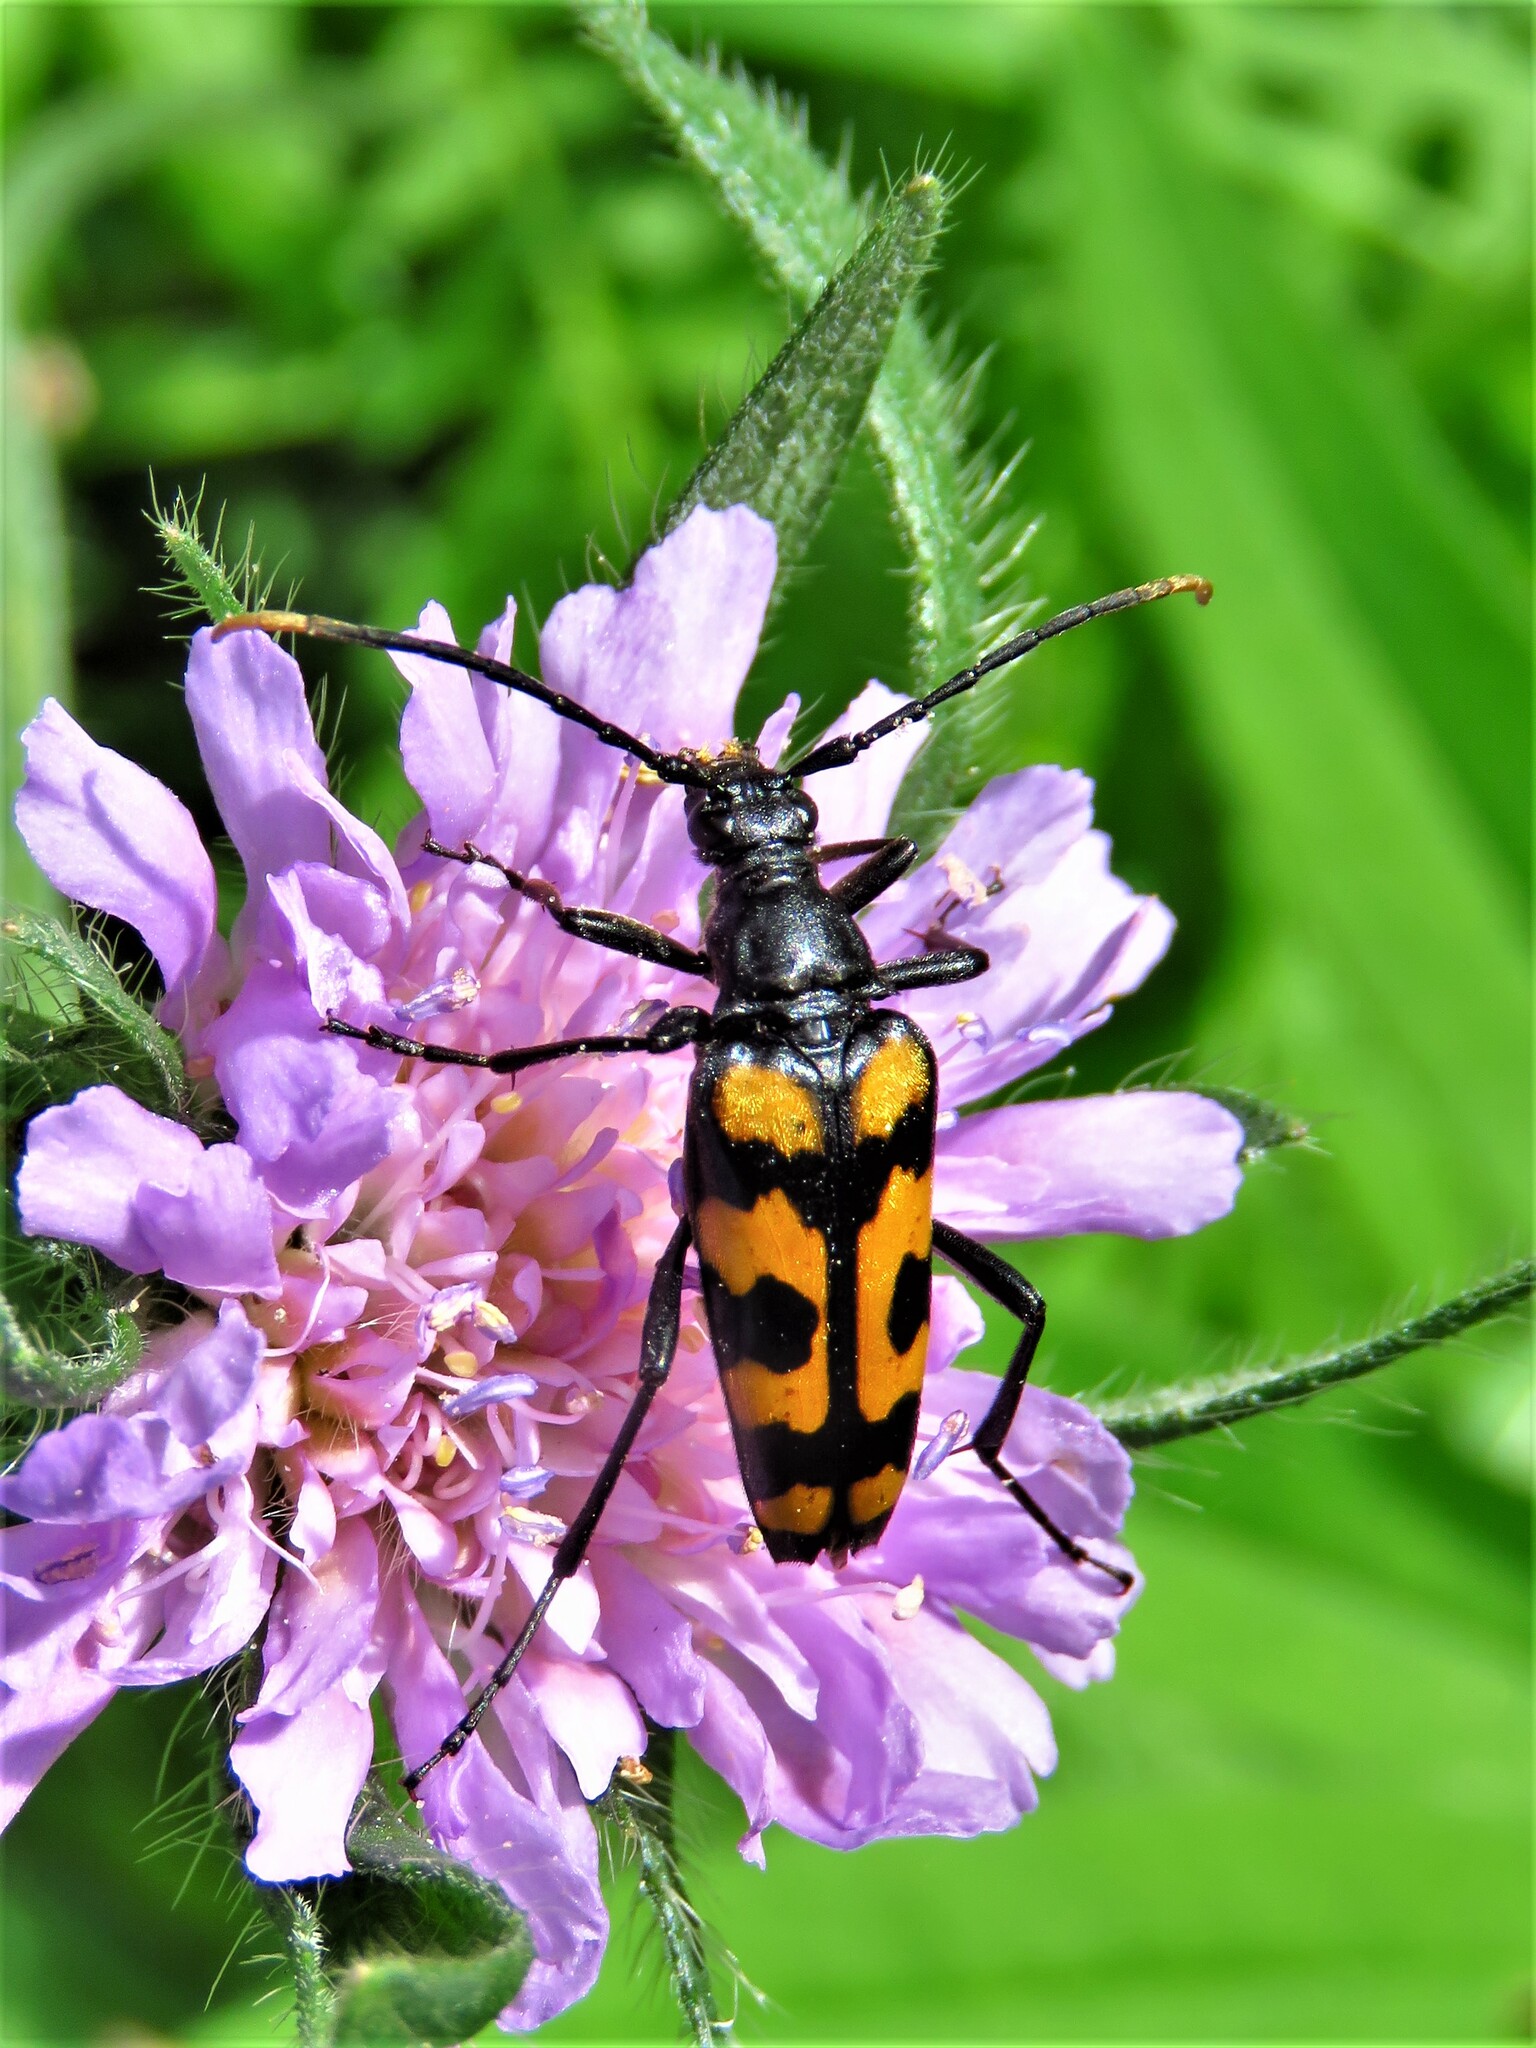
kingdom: Animalia
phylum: Arthropoda
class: Insecta
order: Coleoptera
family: Cerambycidae
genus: Leptura
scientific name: Leptura quadrifasciata
